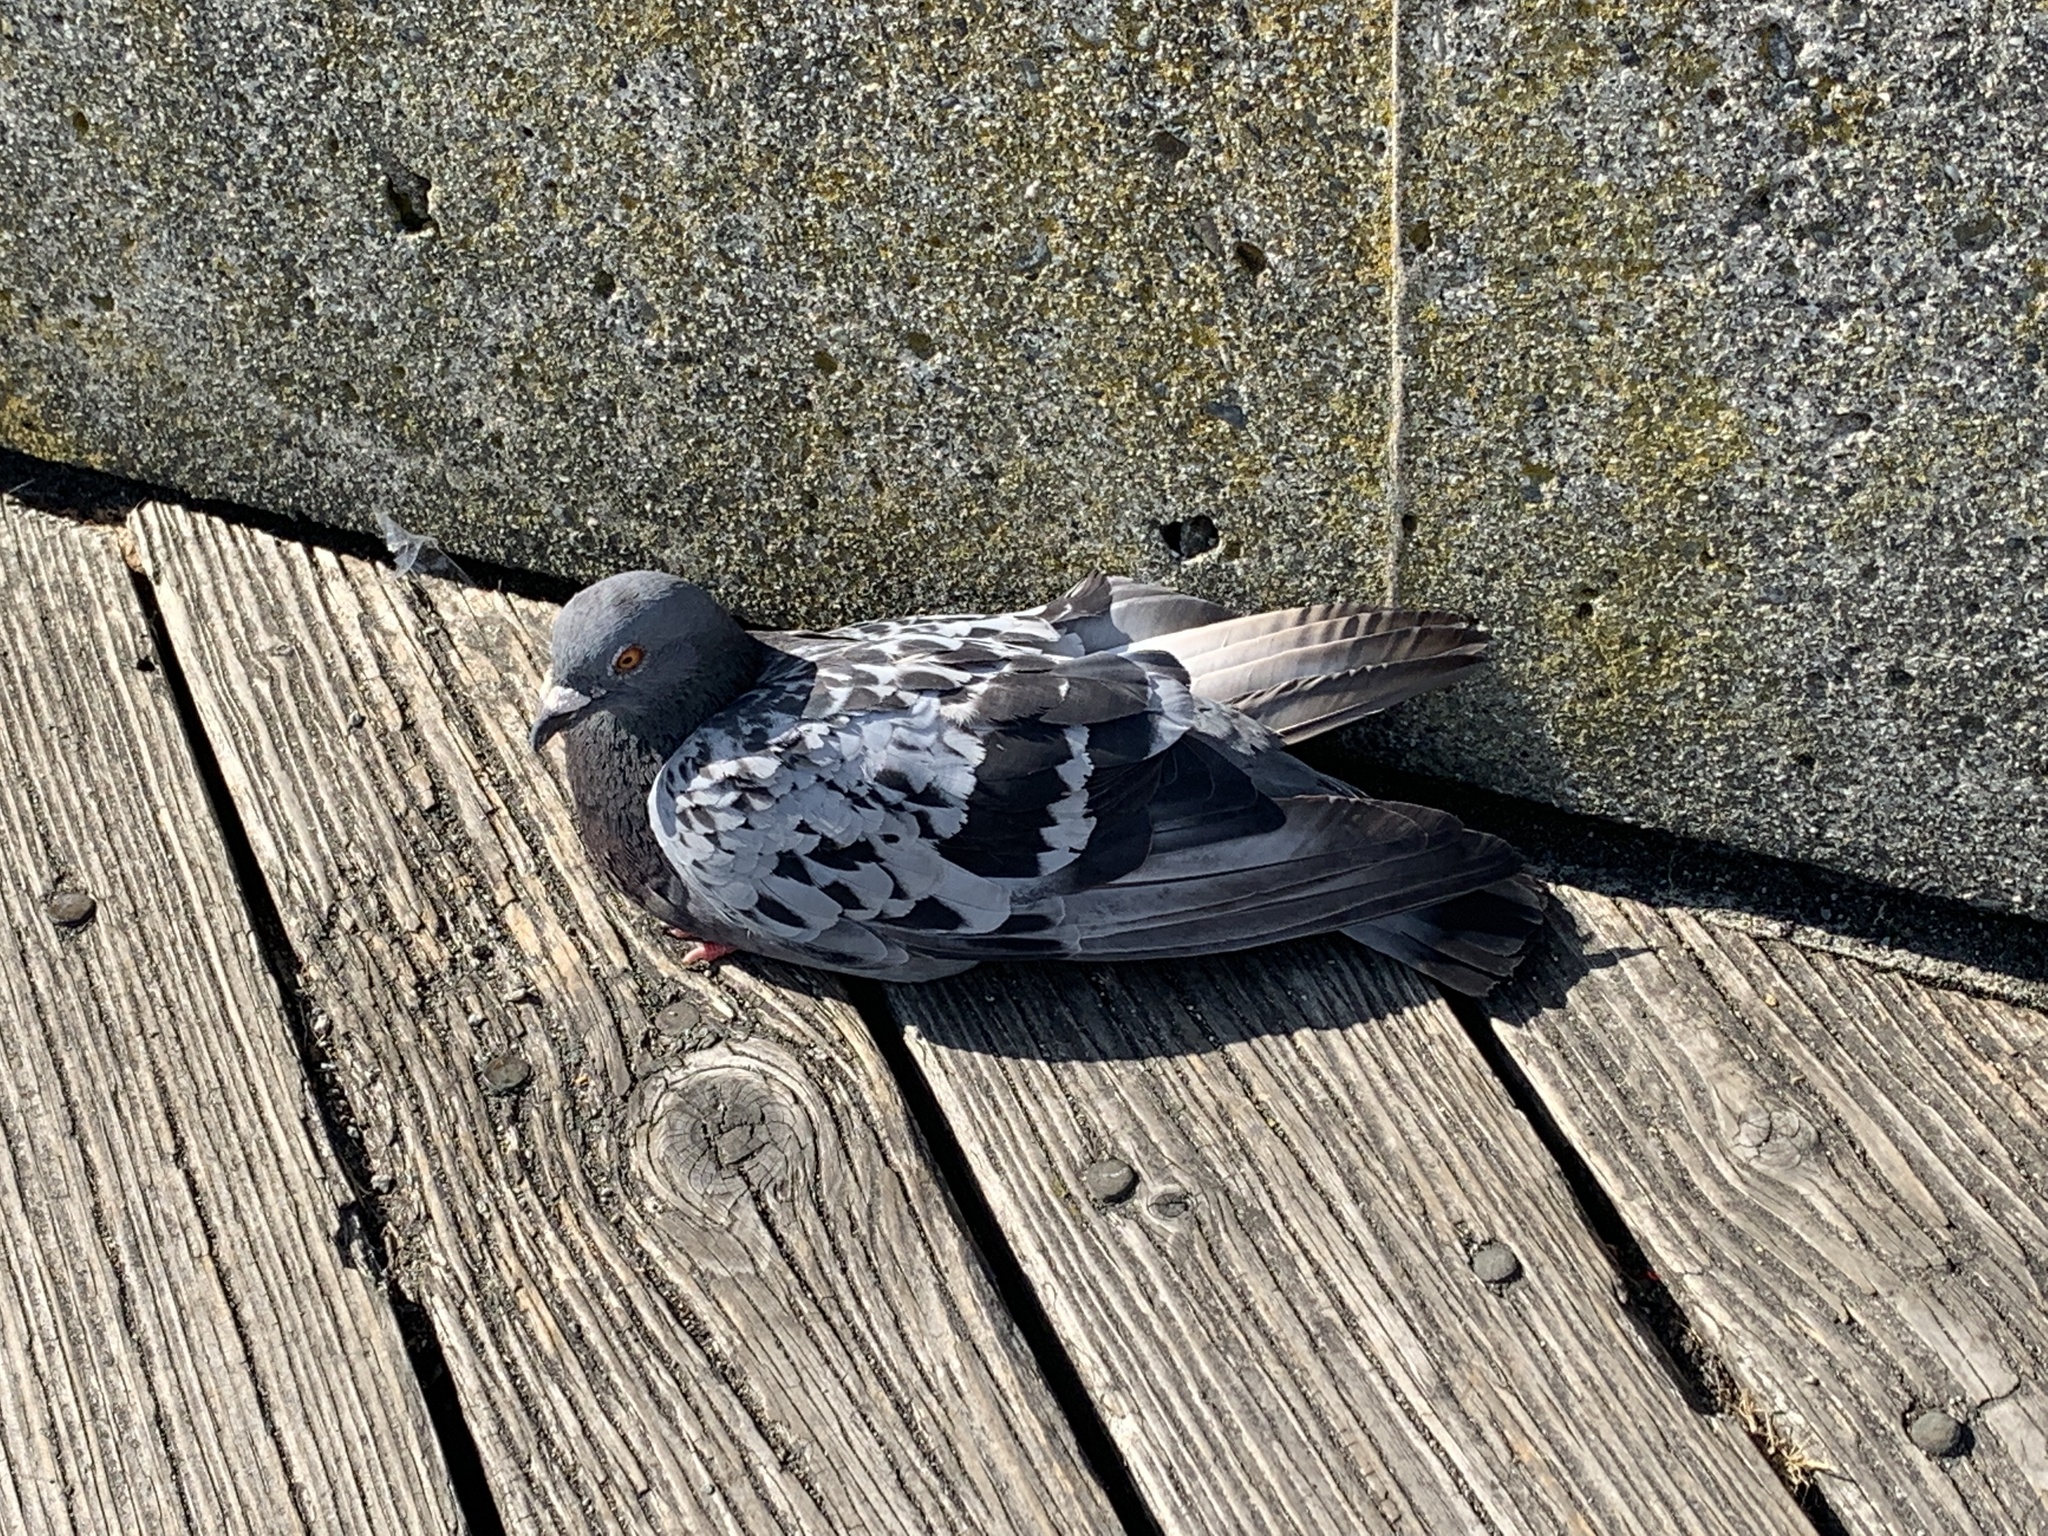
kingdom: Animalia
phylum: Chordata
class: Aves
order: Columbiformes
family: Columbidae
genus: Columba
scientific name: Columba livia
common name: Rock pigeon
